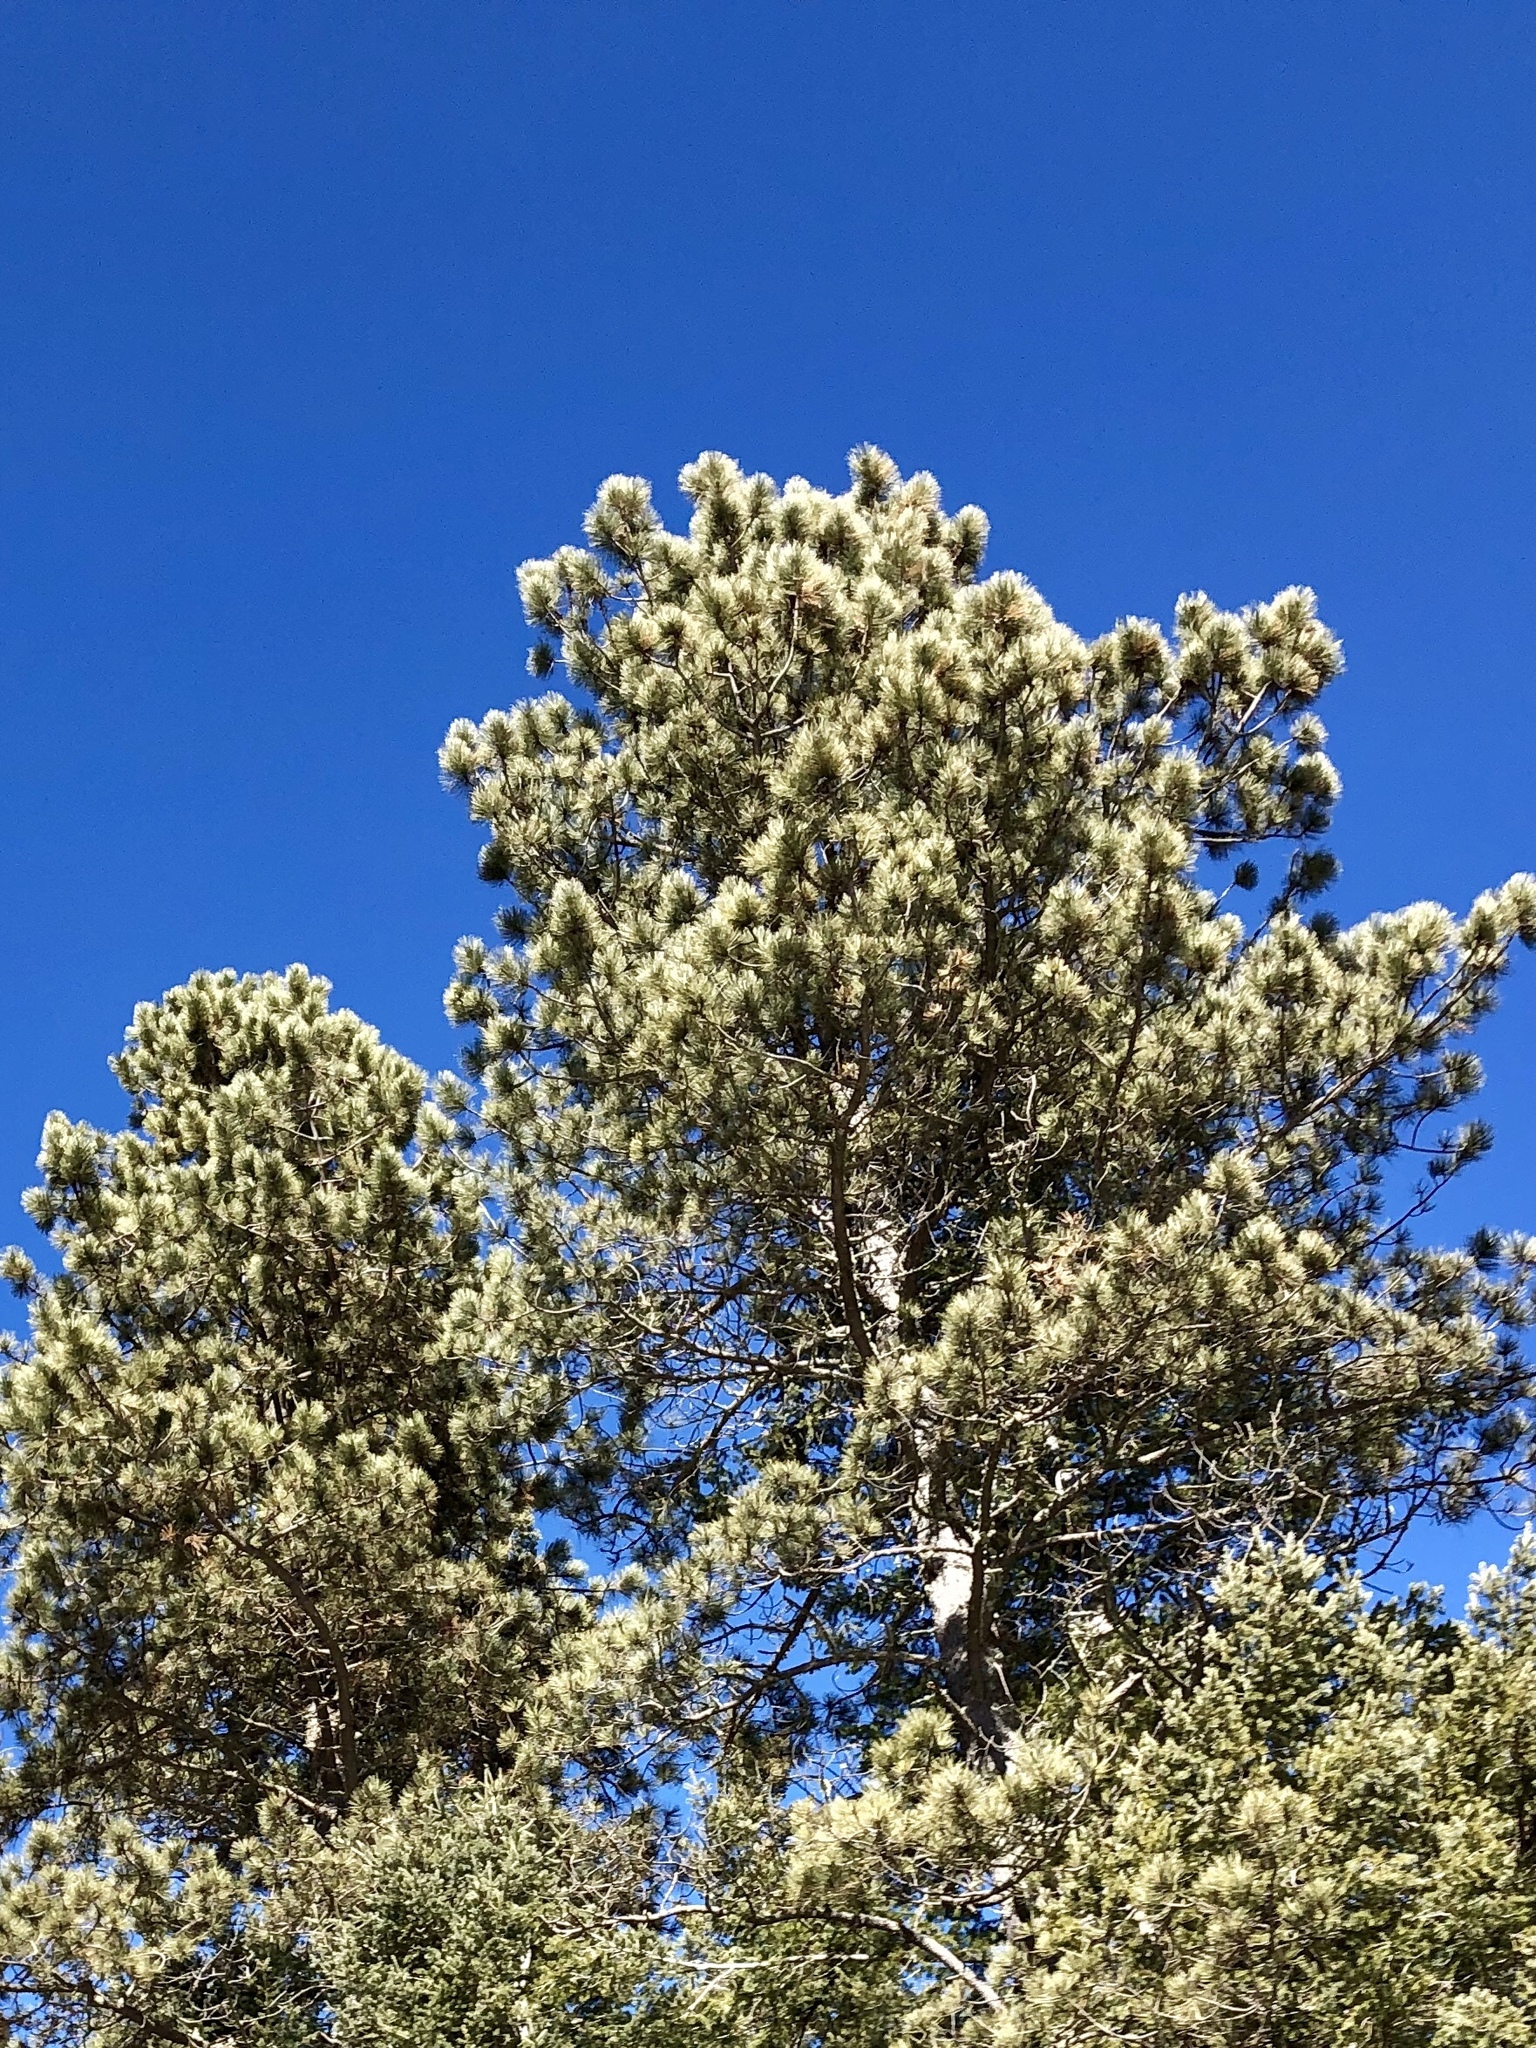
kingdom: Plantae
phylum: Tracheophyta
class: Pinopsida
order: Pinales
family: Pinaceae
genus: Pinus
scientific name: Pinus ponderosa
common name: Western yellow-pine
